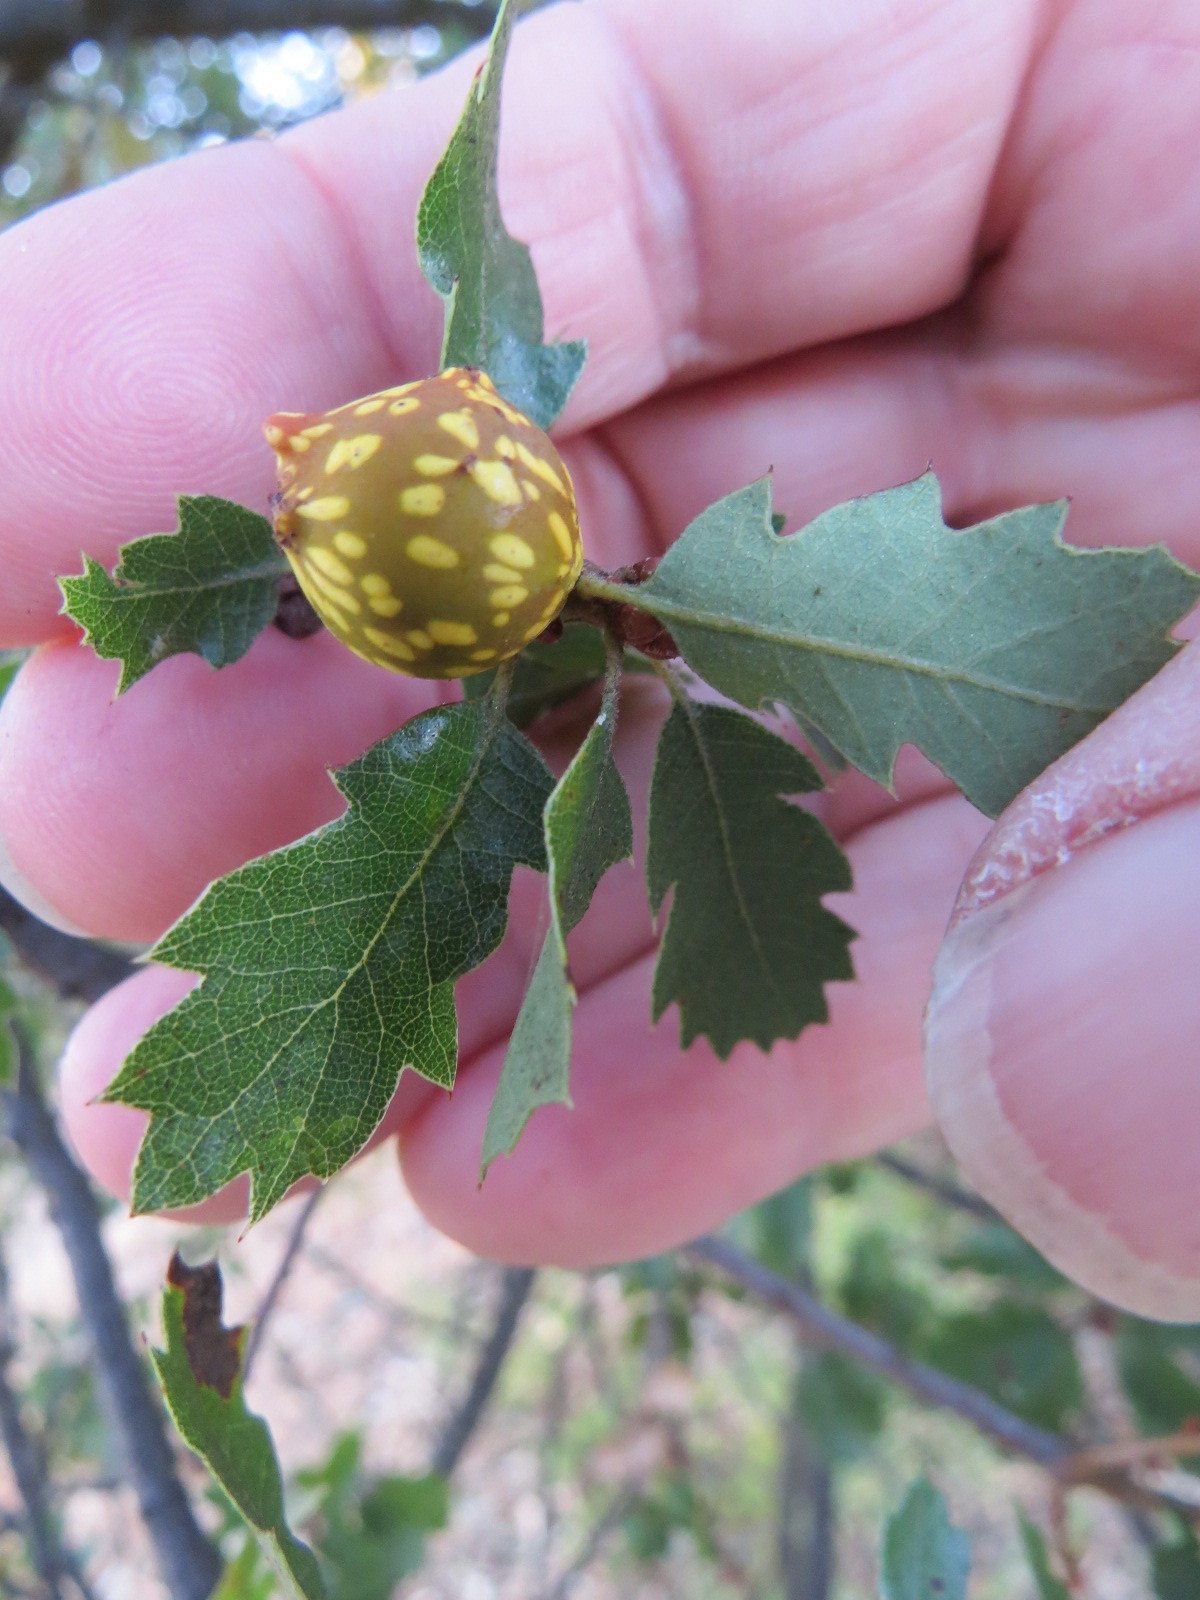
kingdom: Animalia
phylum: Arthropoda
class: Insecta
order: Hymenoptera
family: Cynipidae
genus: Burnettweldia
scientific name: Burnettweldia
